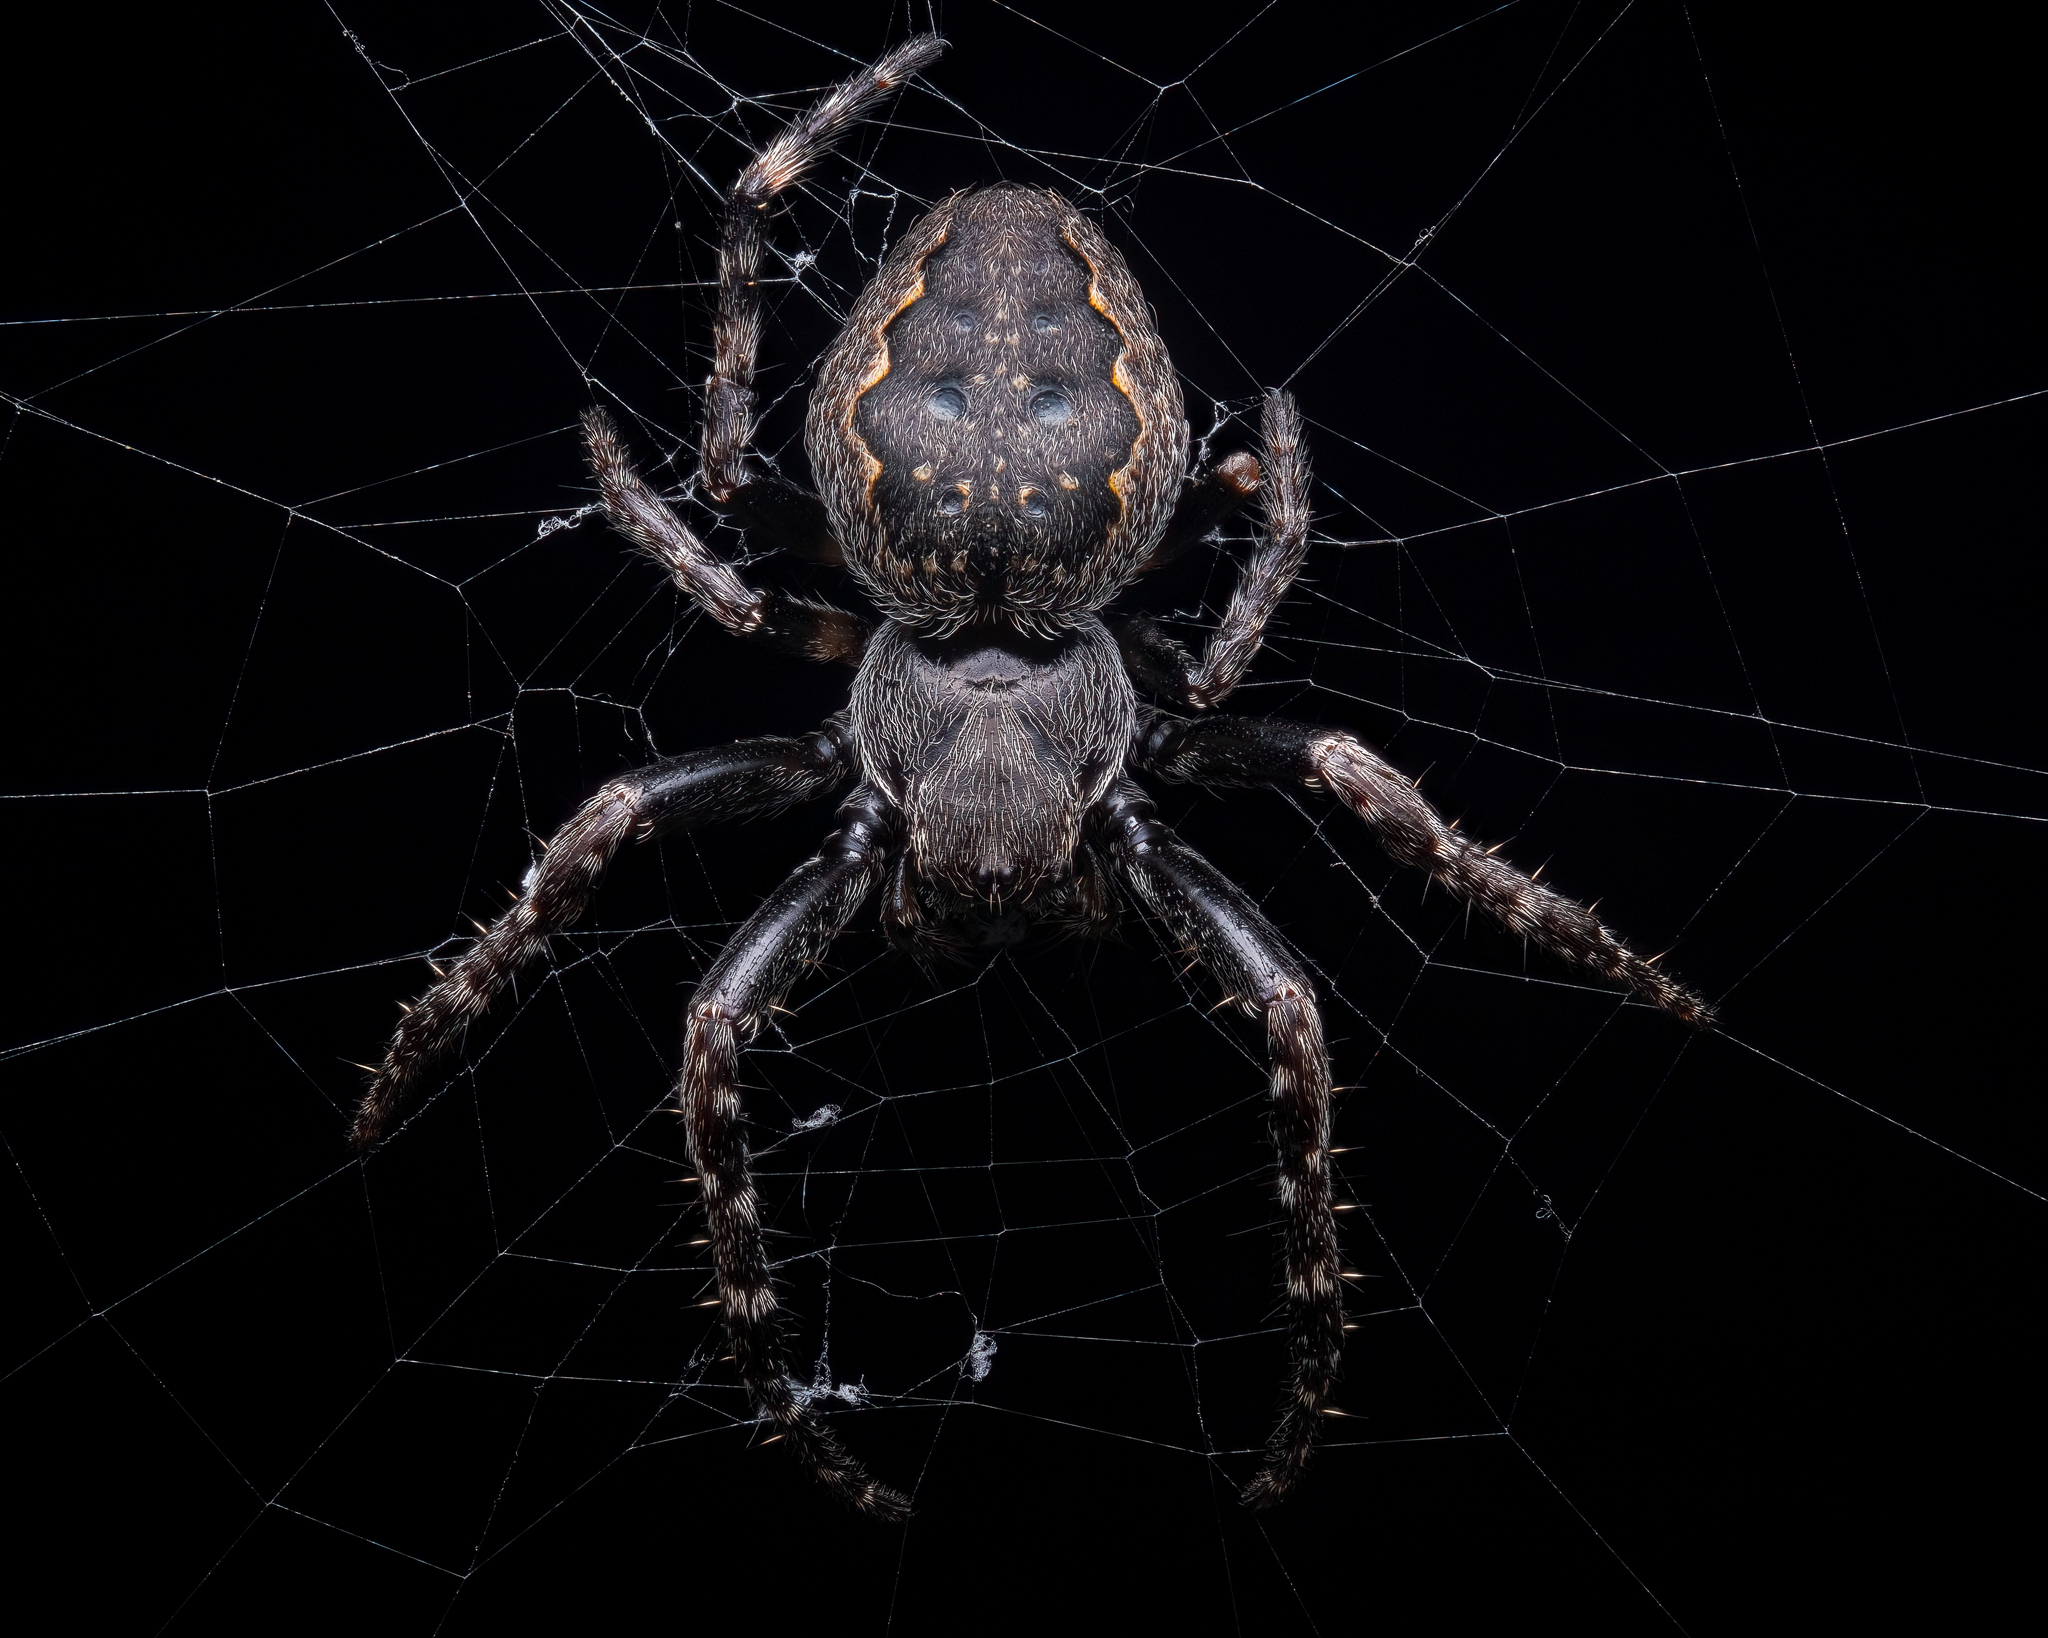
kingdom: Animalia
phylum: Arthropoda
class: Arachnida
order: Araneae
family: Araneidae
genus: Nuctenea
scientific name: Nuctenea umbratica
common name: Toad spider
